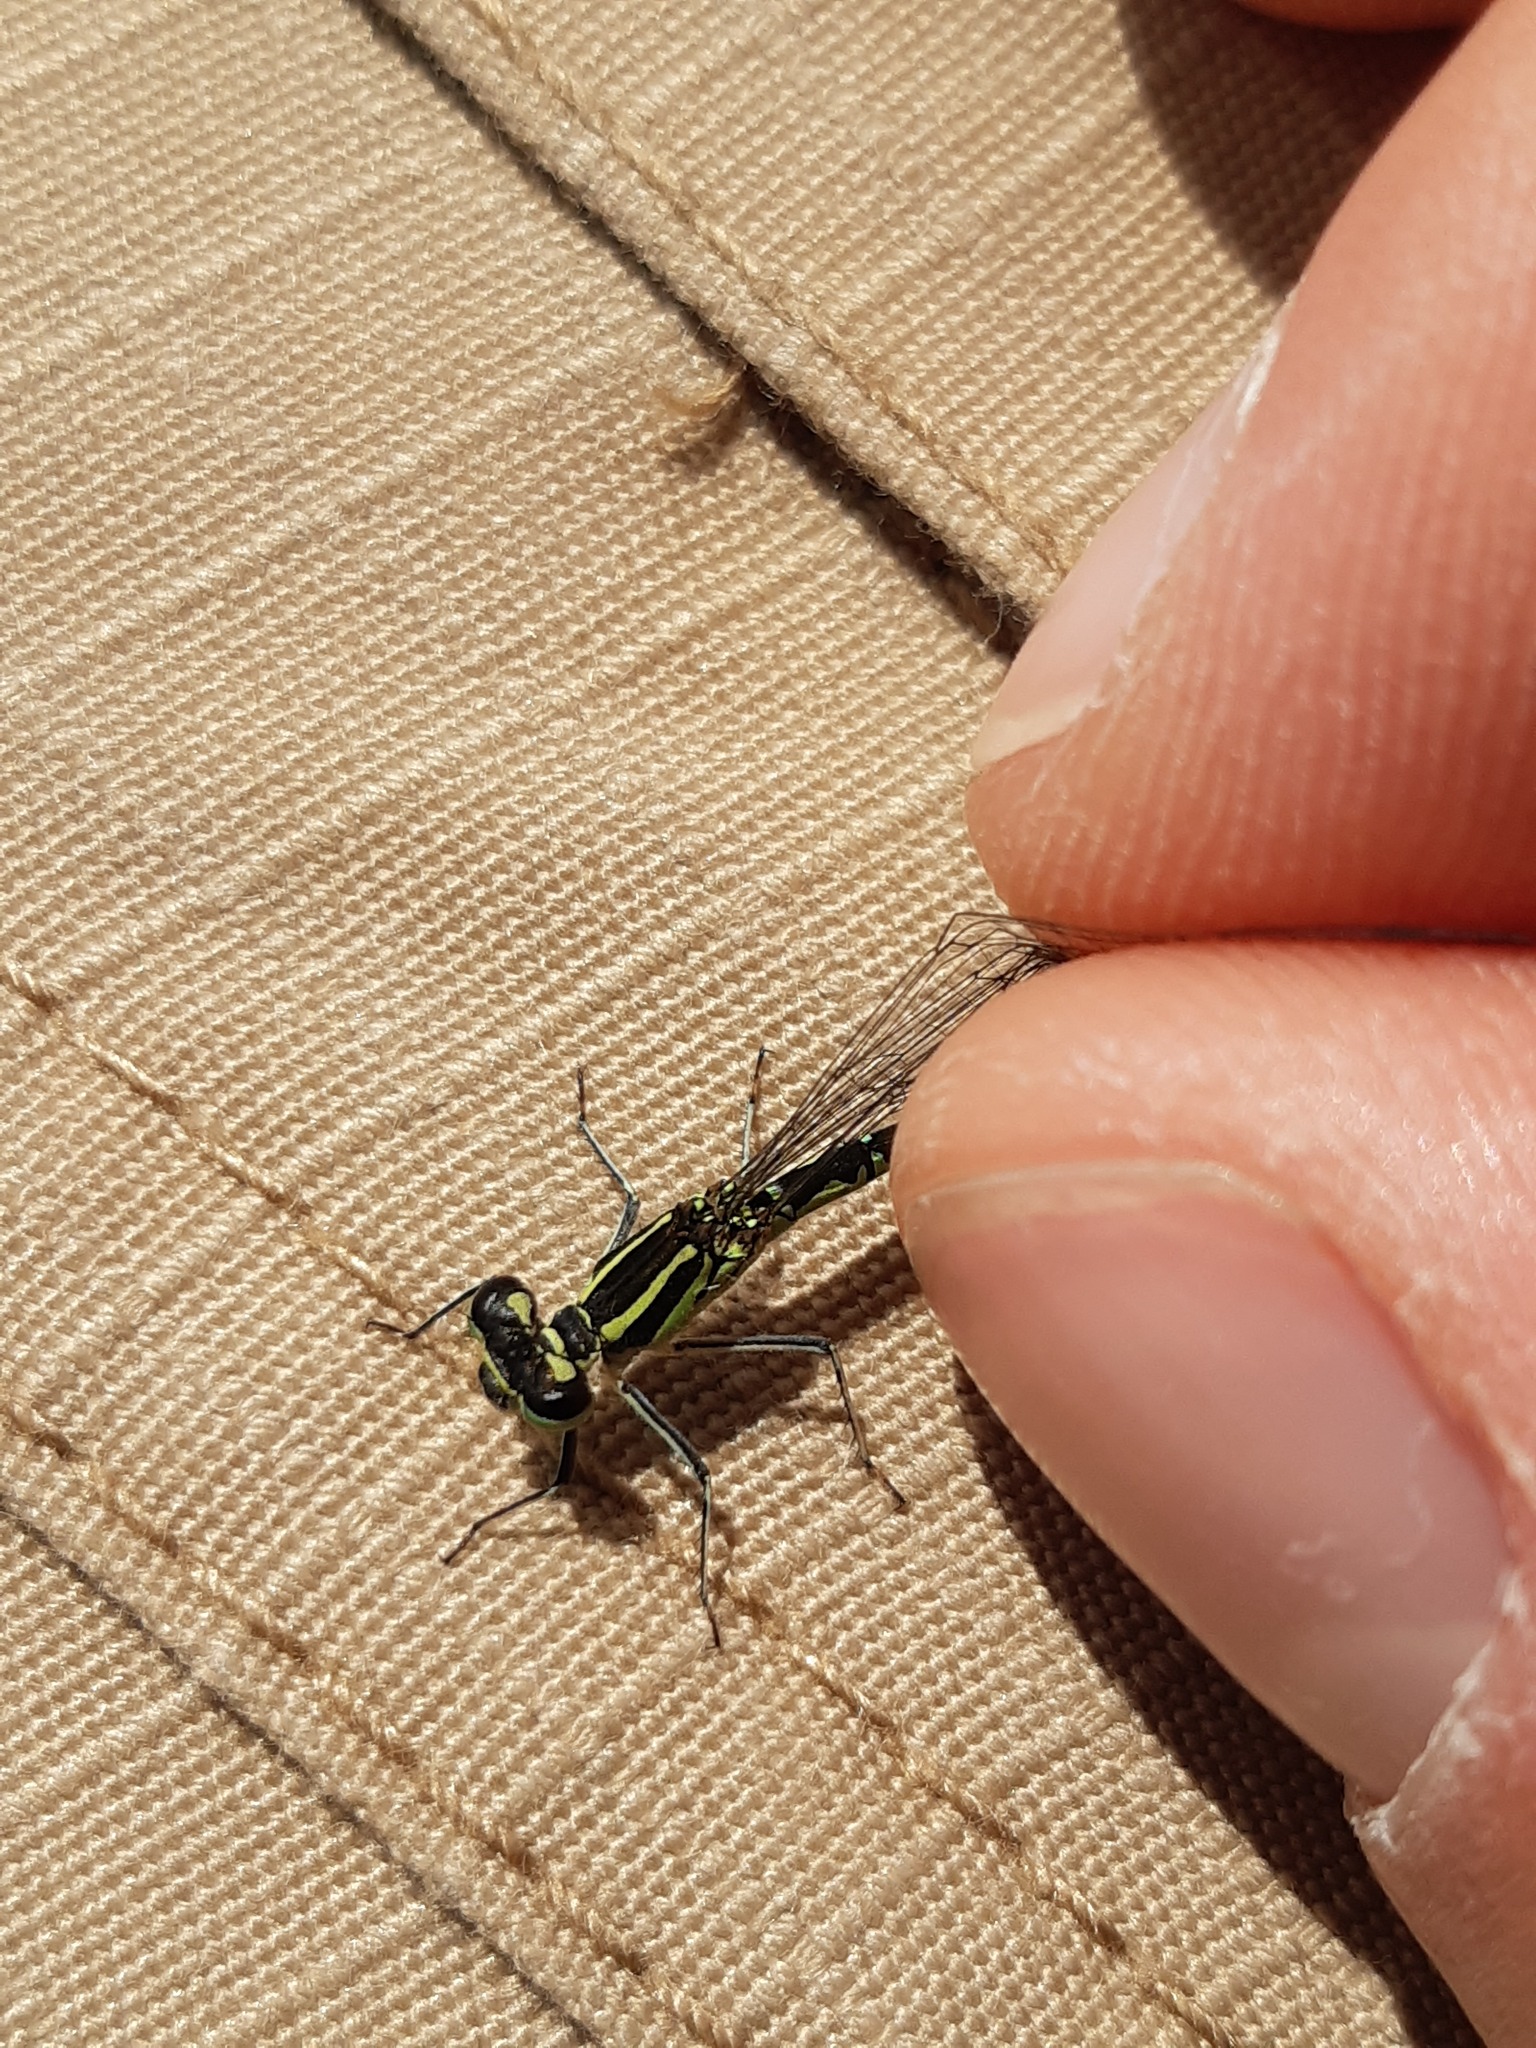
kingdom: Animalia
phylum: Arthropoda
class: Insecta
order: Odonata
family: Coenagrionidae
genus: Coenagrion
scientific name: Coenagrion puella
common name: Azure damselfly
